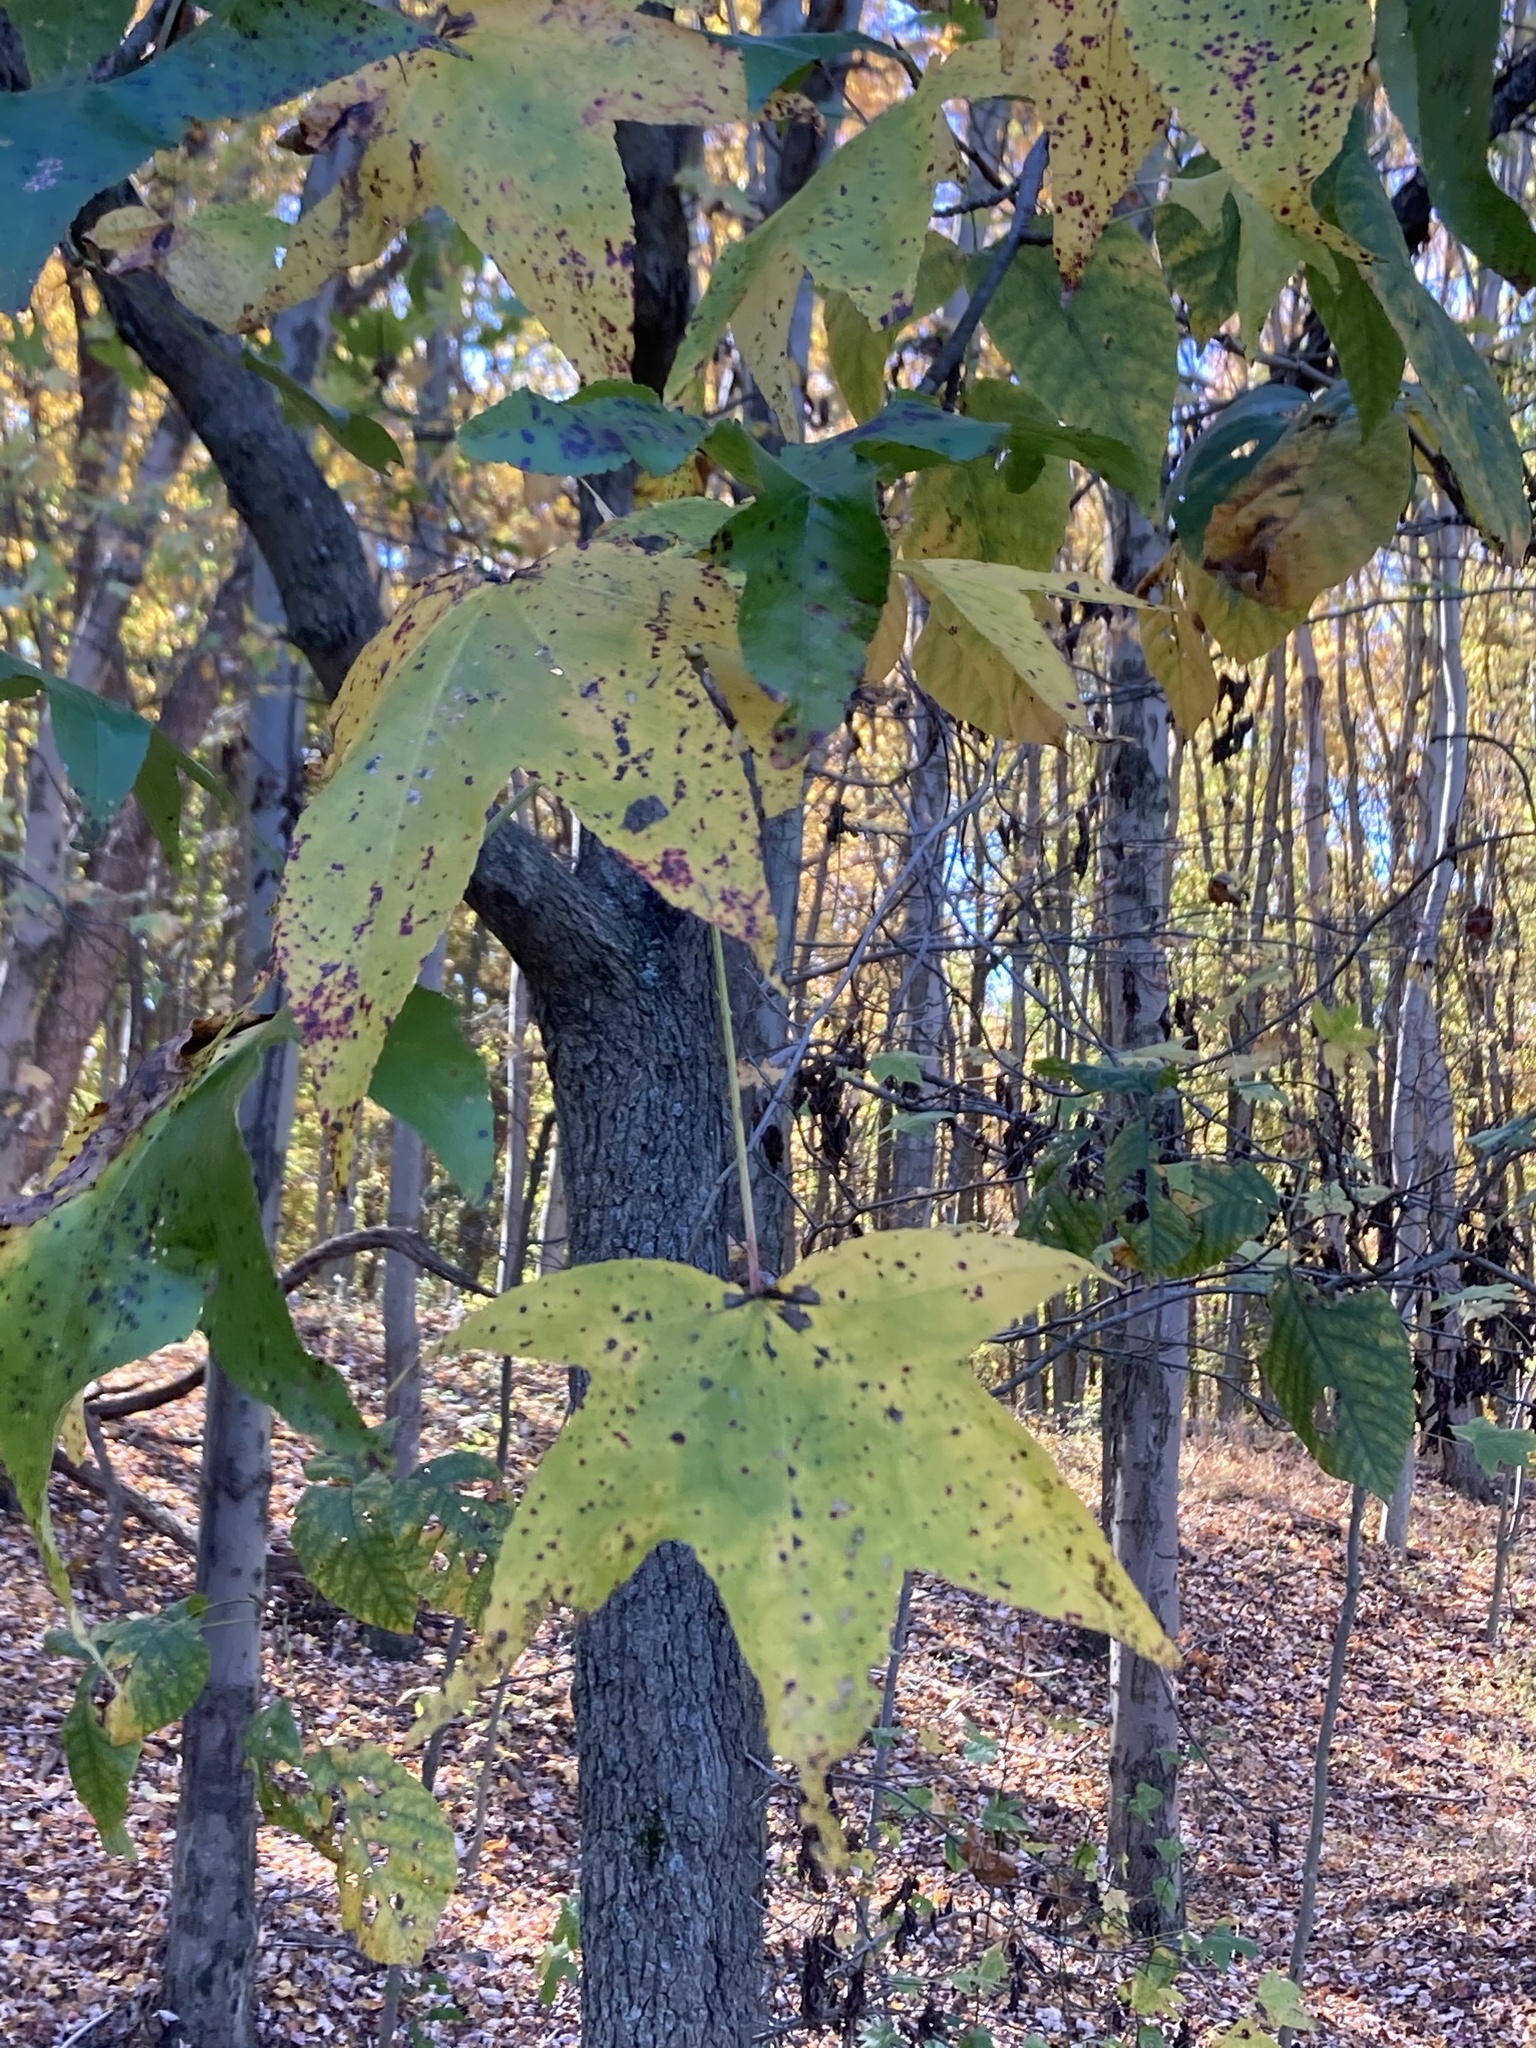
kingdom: Plantae
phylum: Tracheophyta
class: Magnoliopsida
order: Saxifragales
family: Altingiaceae
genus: Liquidambar
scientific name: Liquidambar styraciflua
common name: Sweet gum
